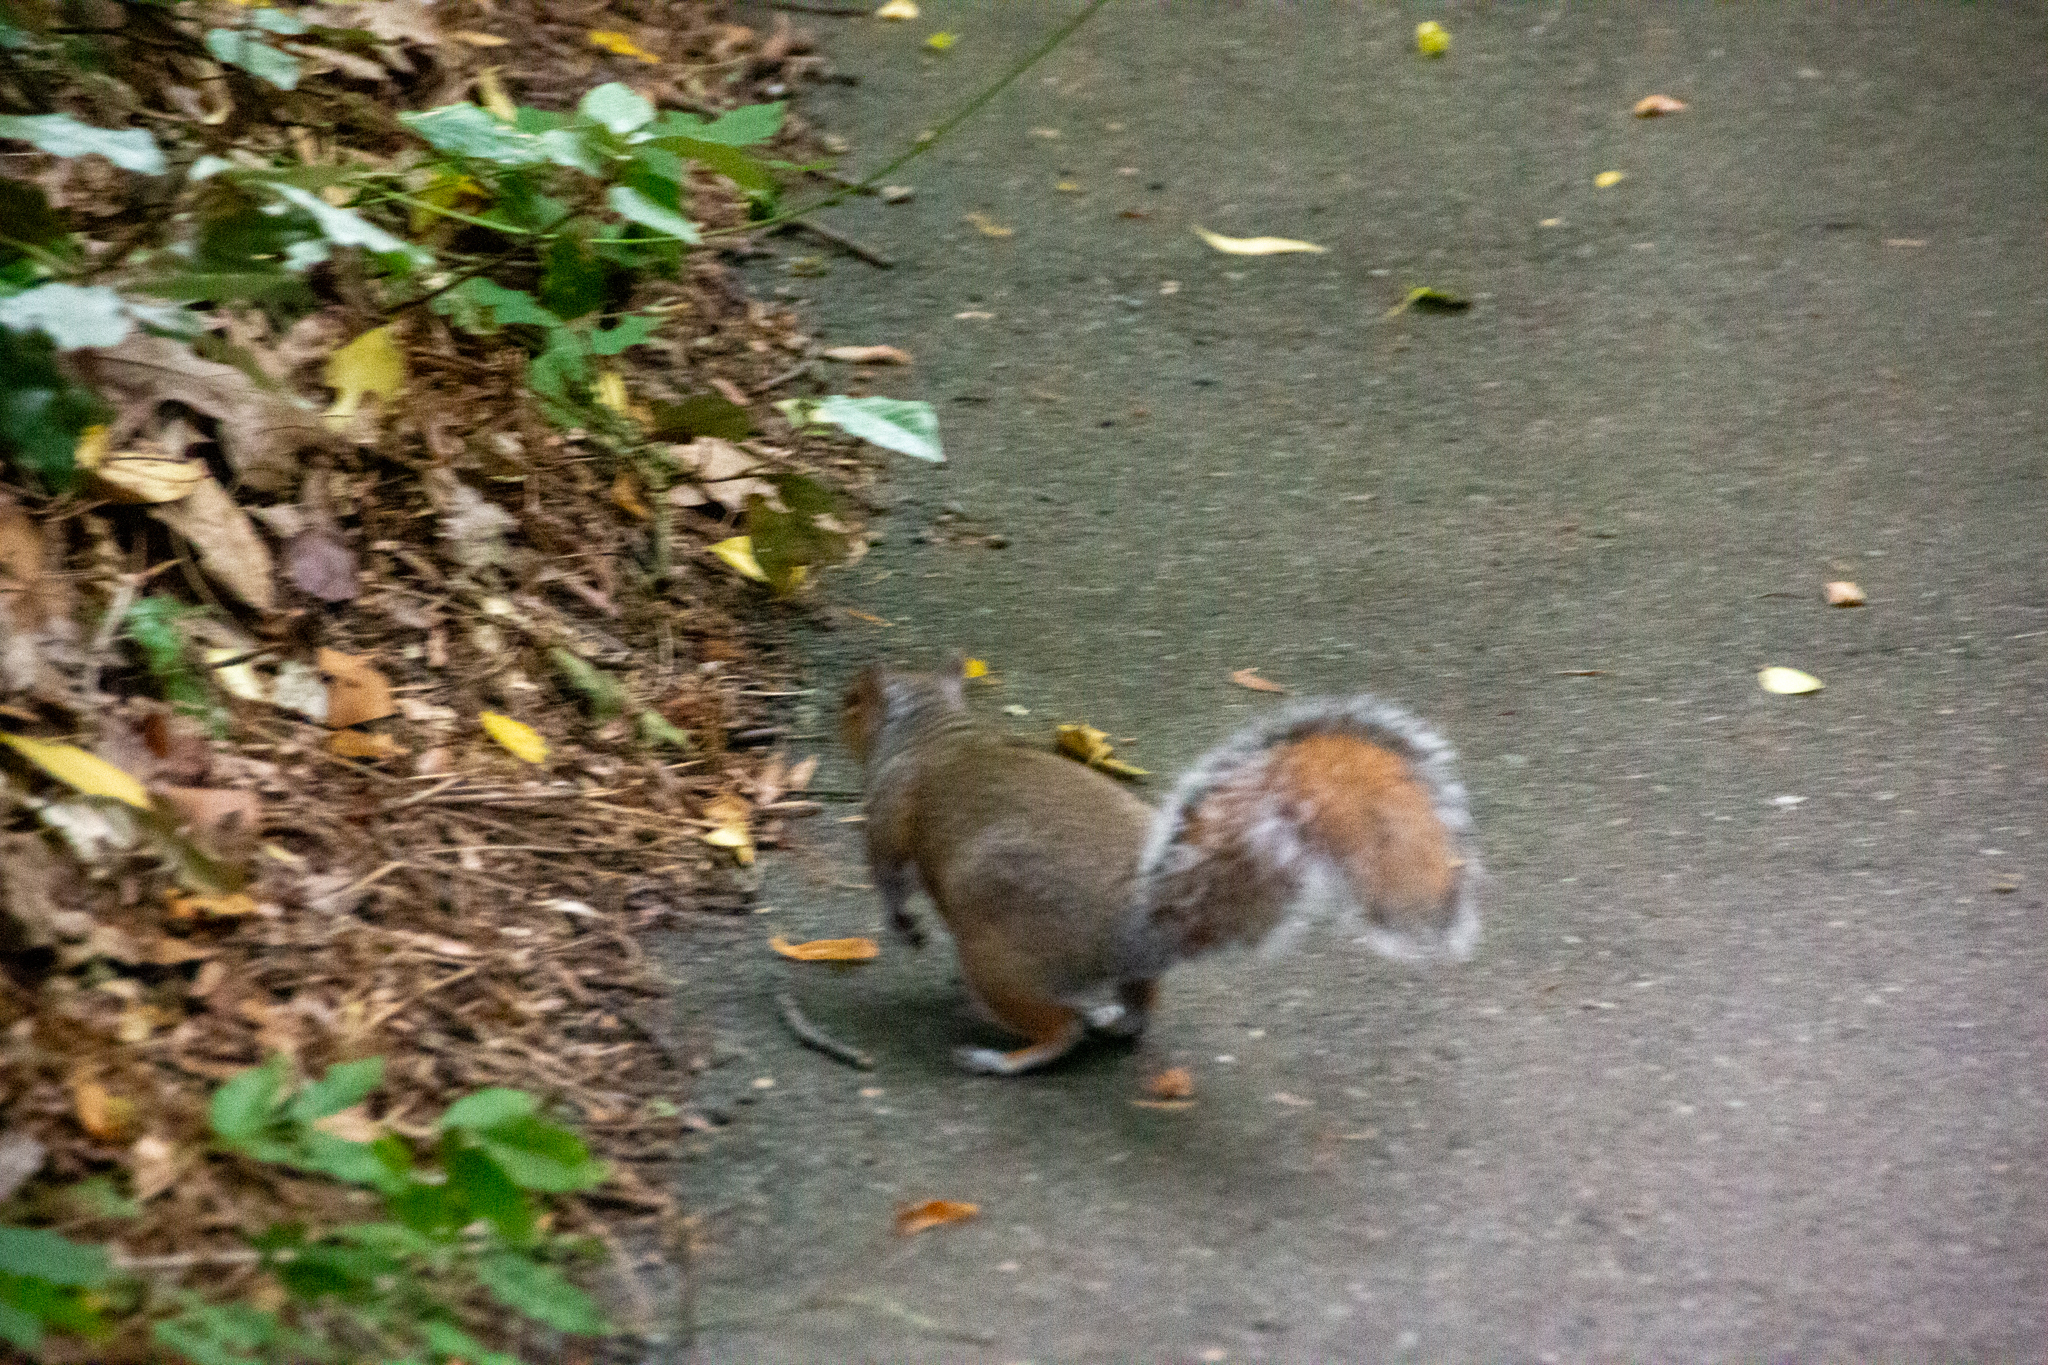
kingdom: Animalia
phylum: Chordata
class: Mammalia
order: Rodentia
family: Sciuridae
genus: Sciurus
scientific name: Sciurus carolinensis
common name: Eastern gray squirrel
